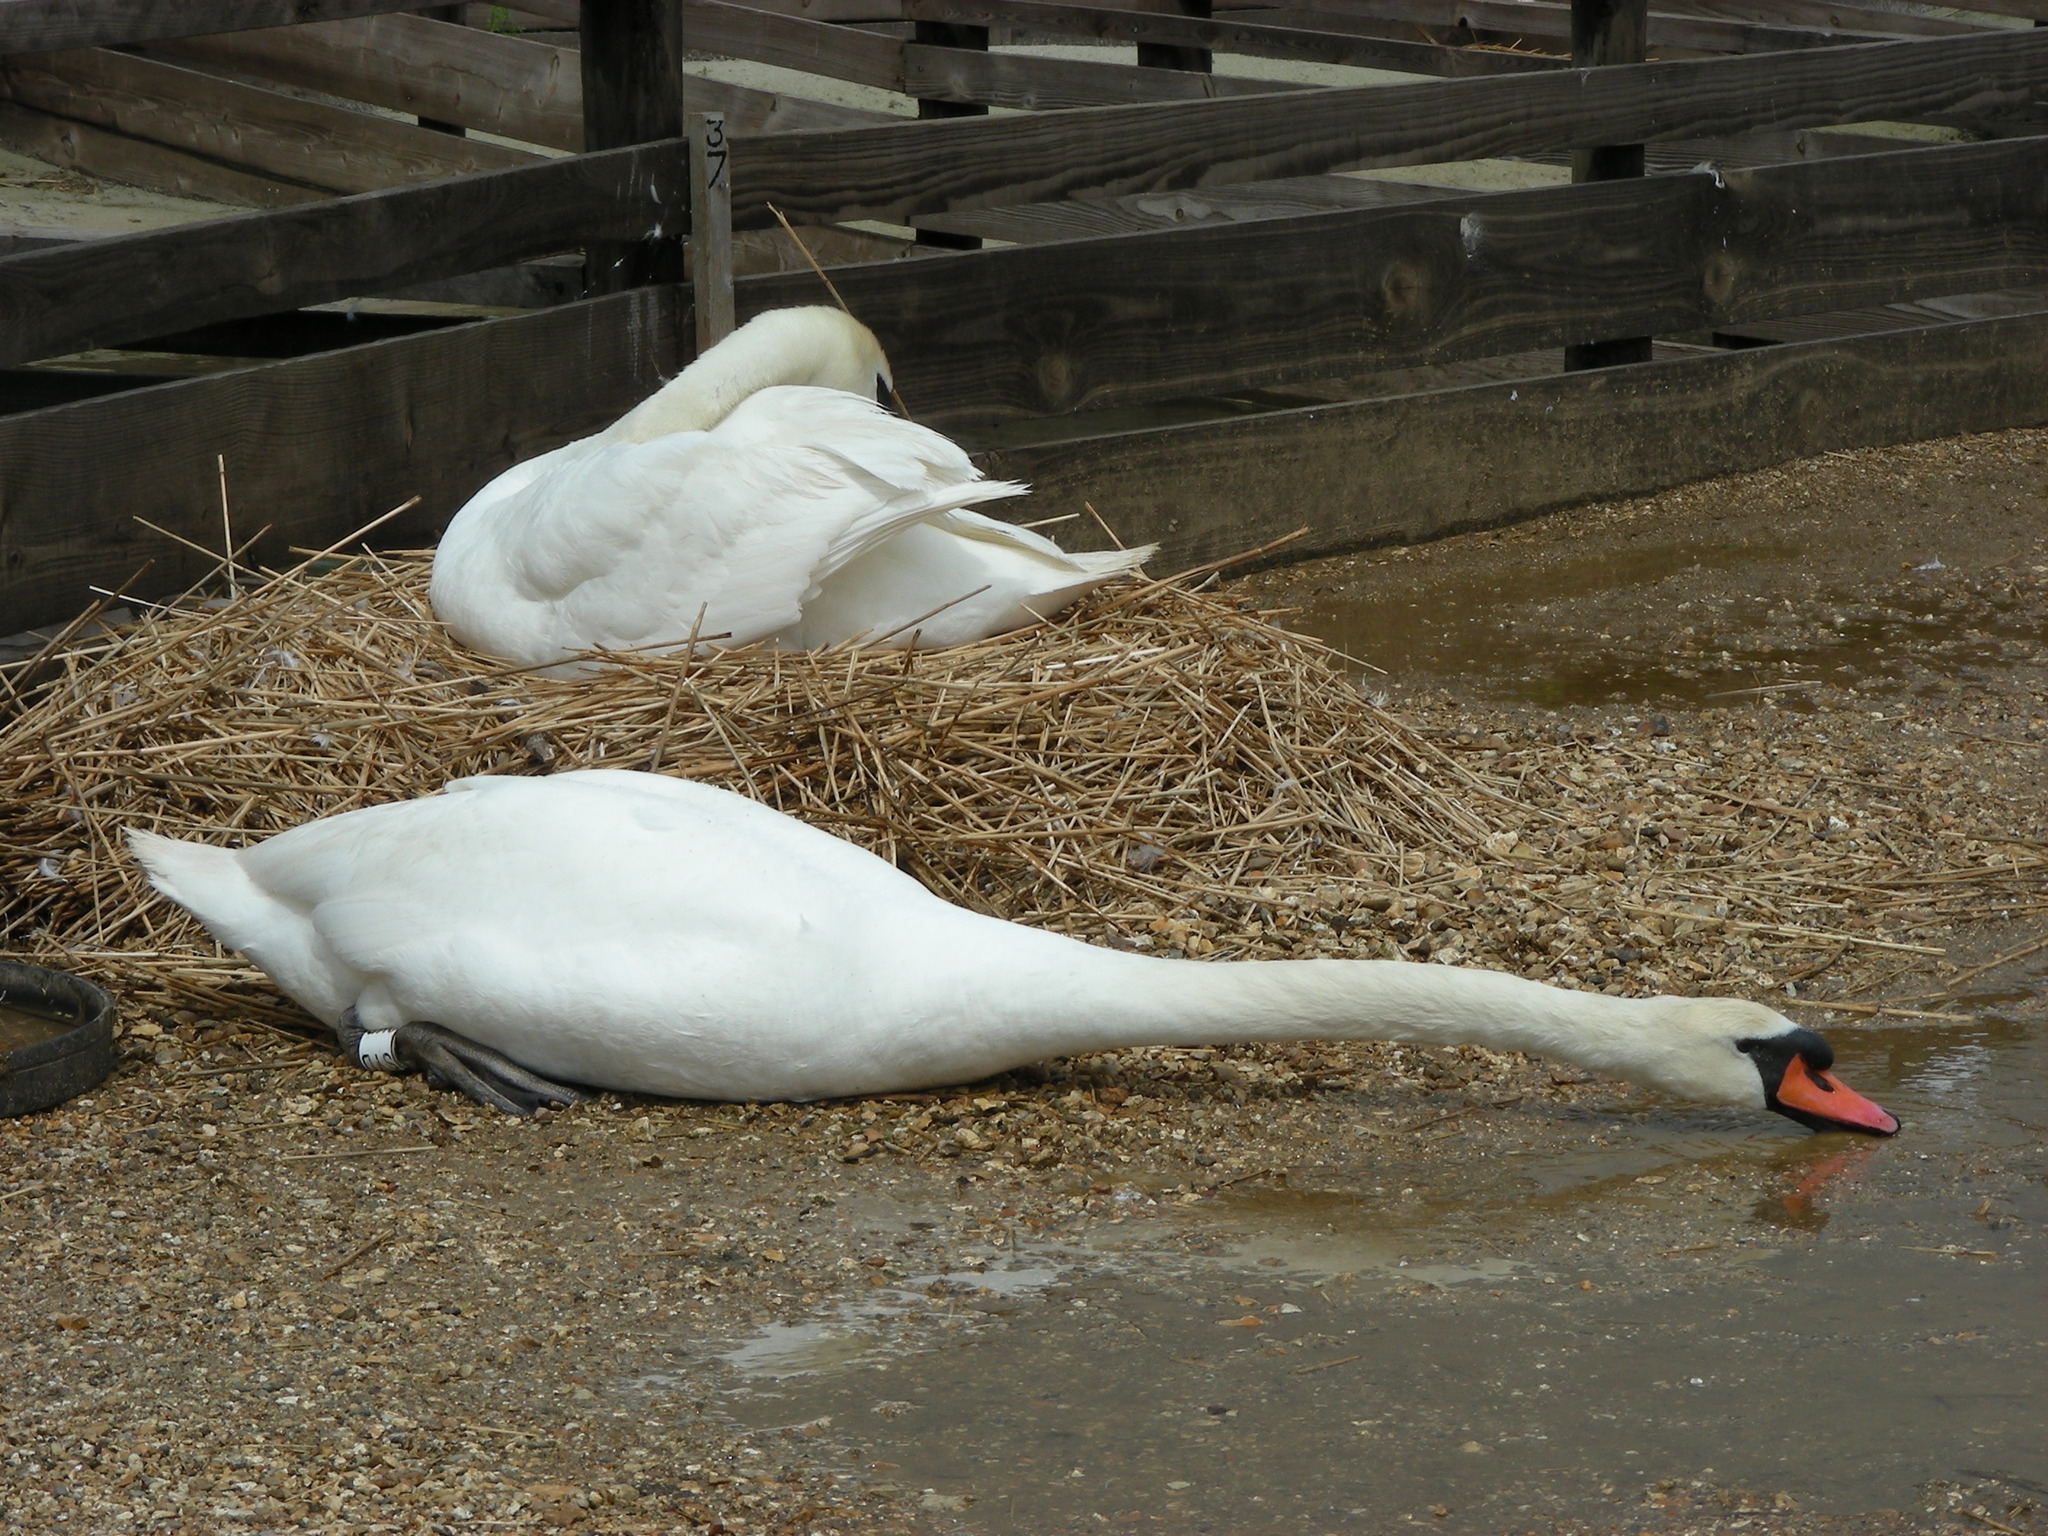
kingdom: Animalia
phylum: Chordata
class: Aves
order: Anseriformes
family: Anatidae
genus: Cygnus
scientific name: Cygnus olor
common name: Mute swan
